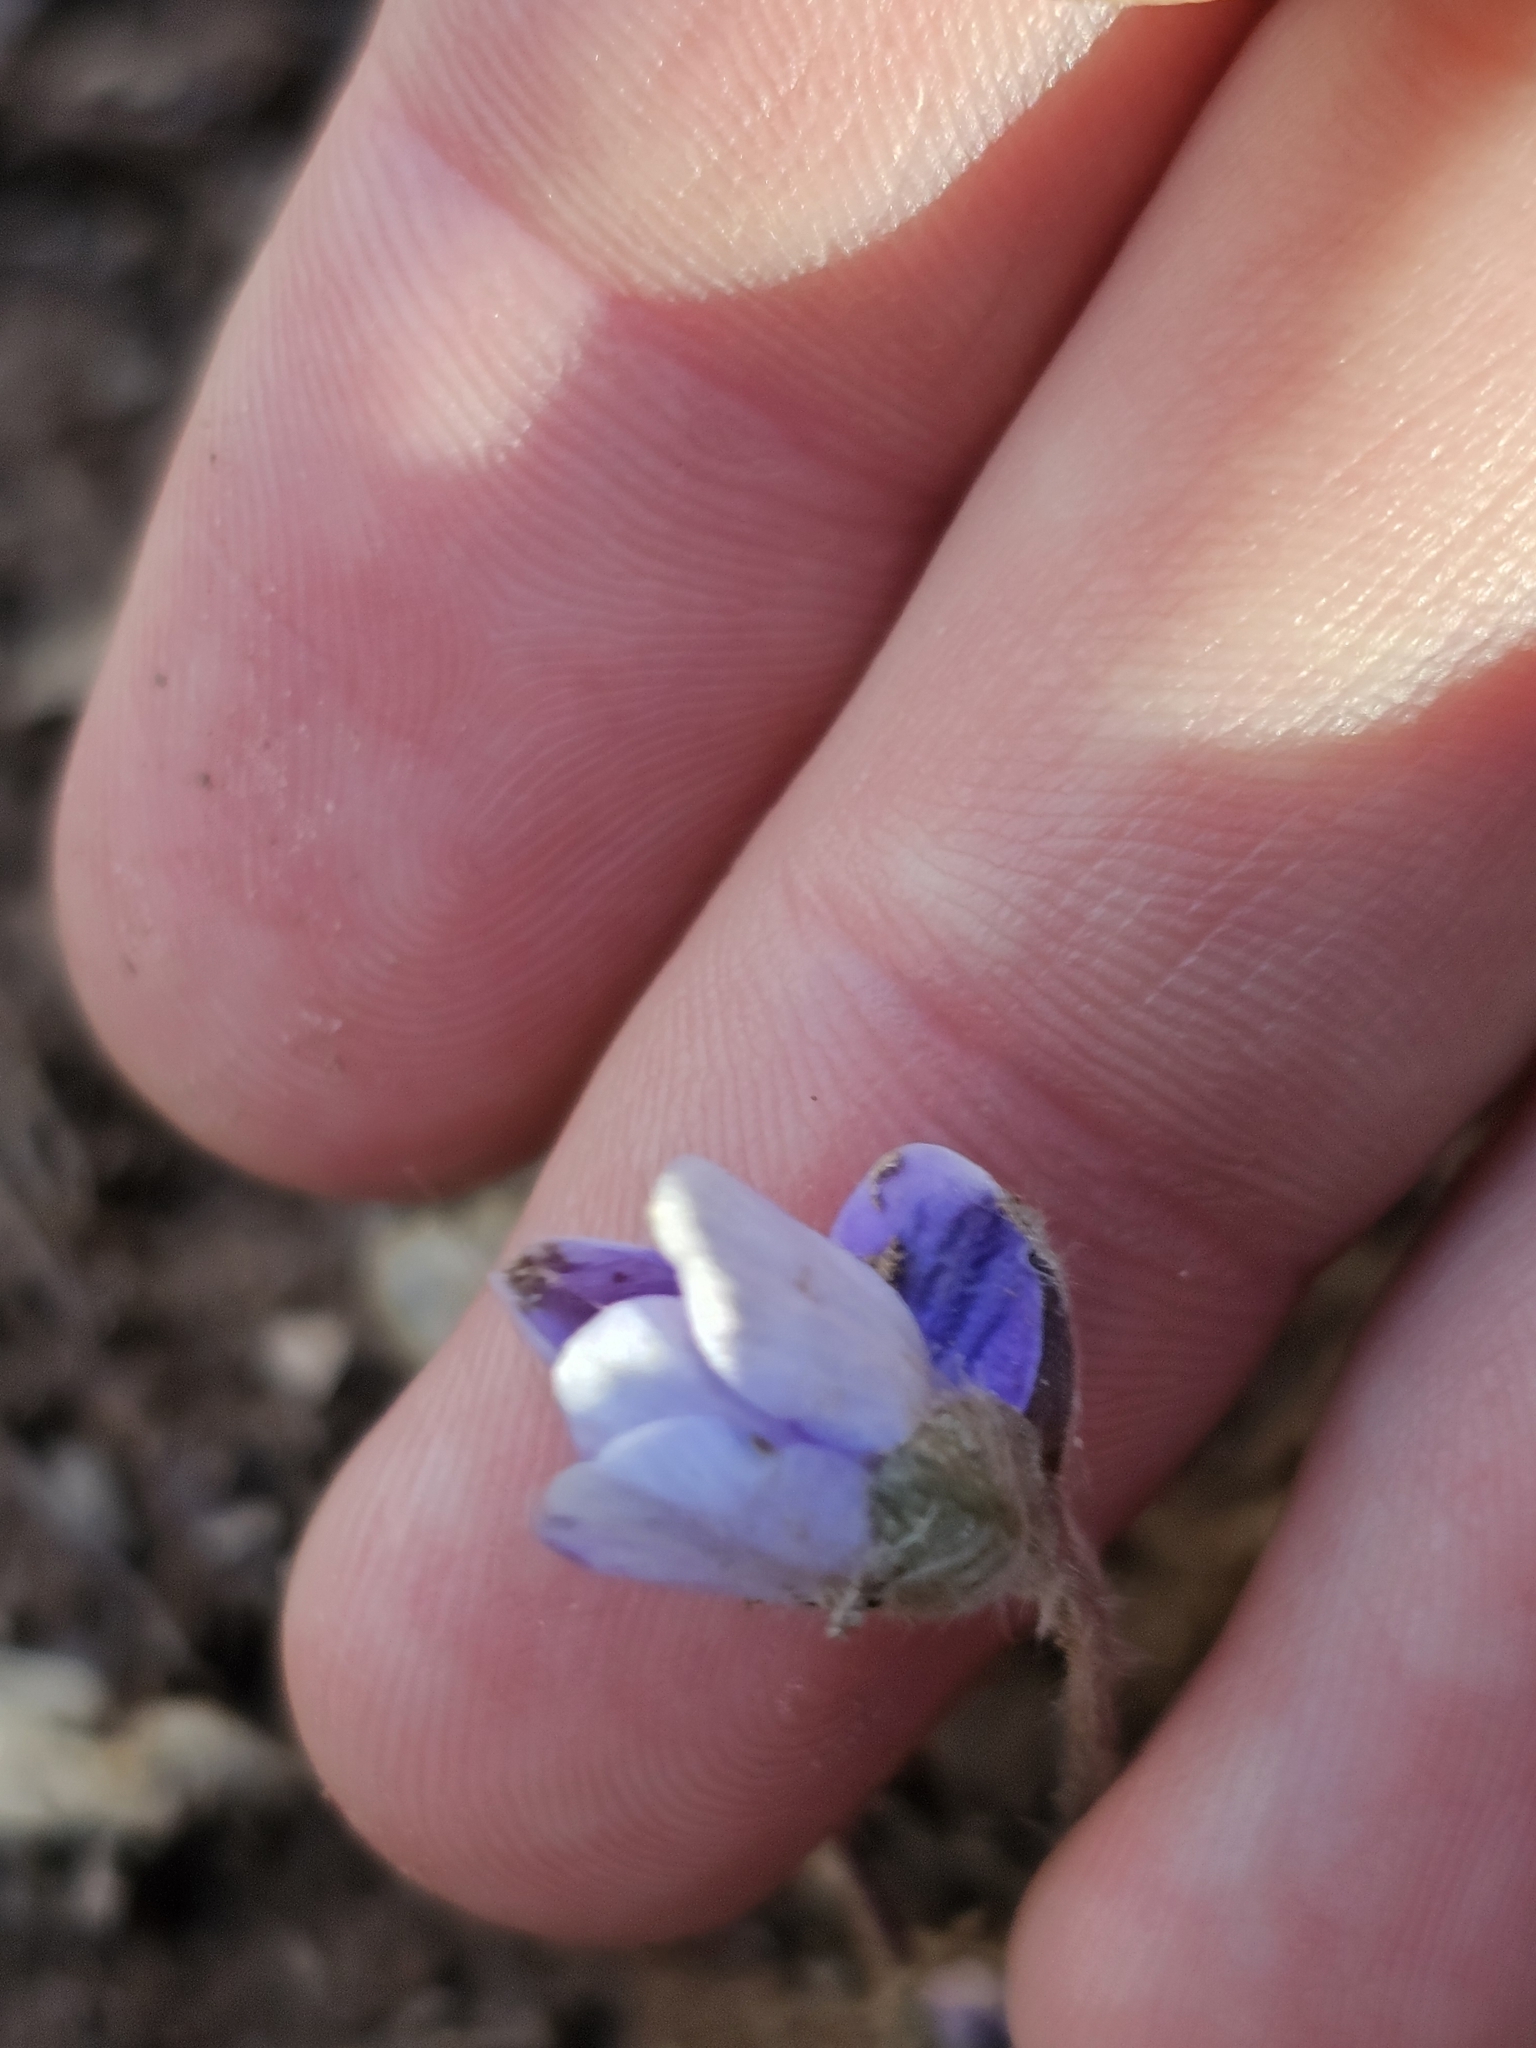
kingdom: Plantae
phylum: Tracheophyta
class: Magnoliopsida
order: Ranunculales
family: Ranunculaceae
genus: Hepatica
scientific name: Hepatica americana
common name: American hepatica
